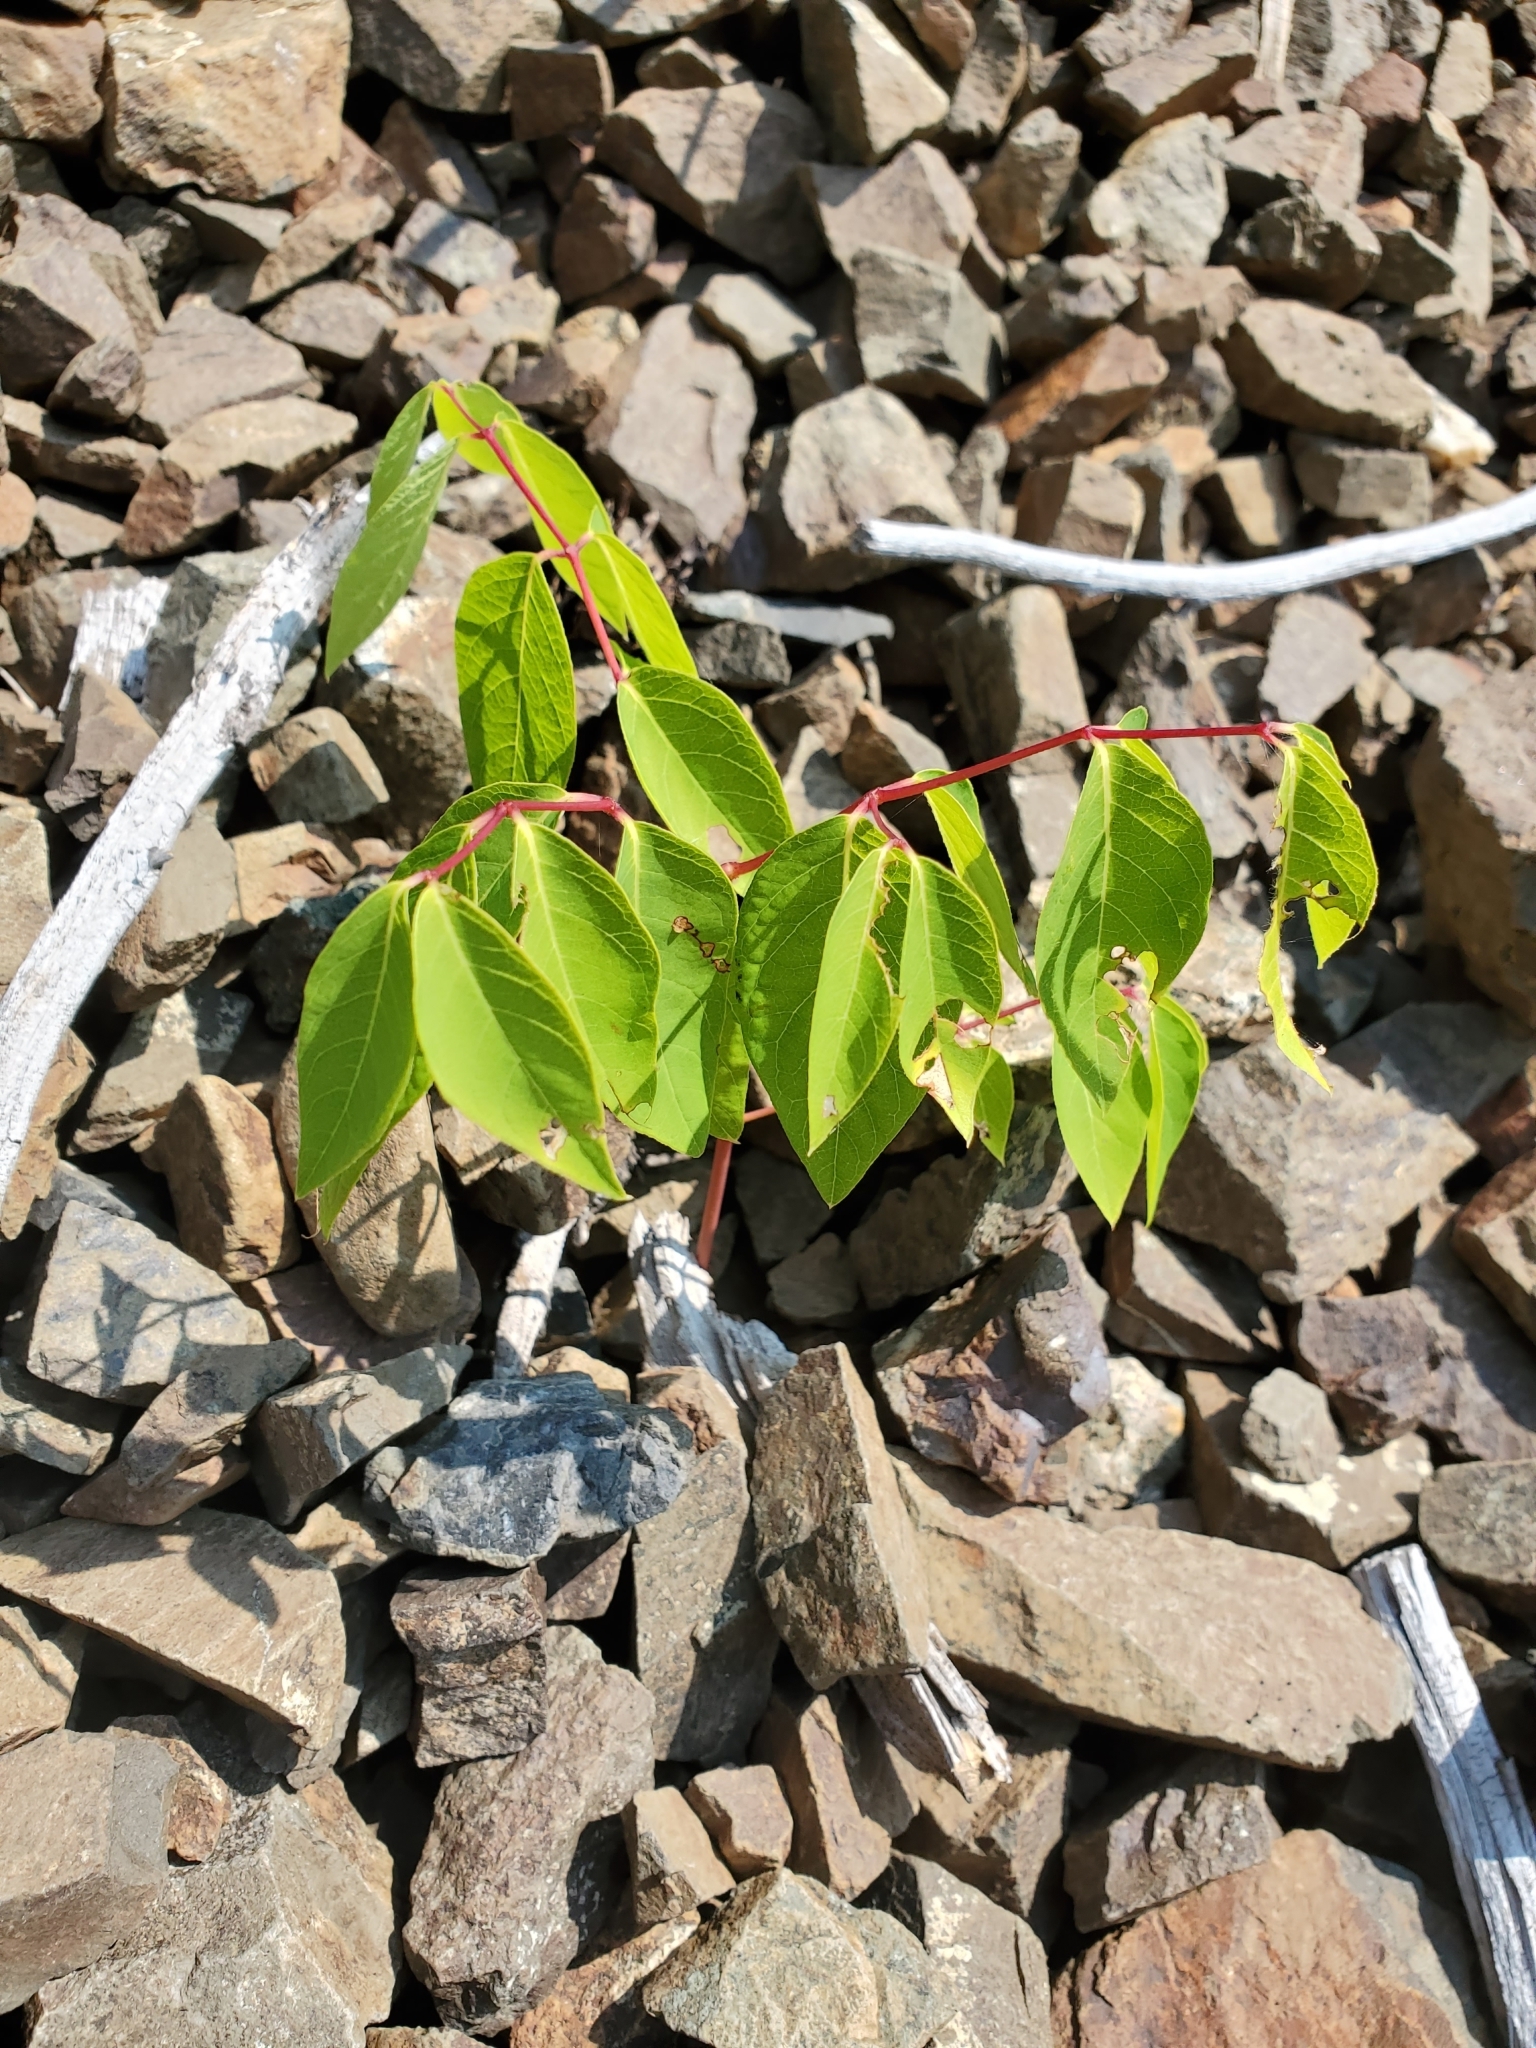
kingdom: Plantae
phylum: Tracheophyta
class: Magnoliopsida
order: Gentianales
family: Apocynaceae
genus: Apocynum
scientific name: Apocynum androsaemifolium
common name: Spreading dogbane
